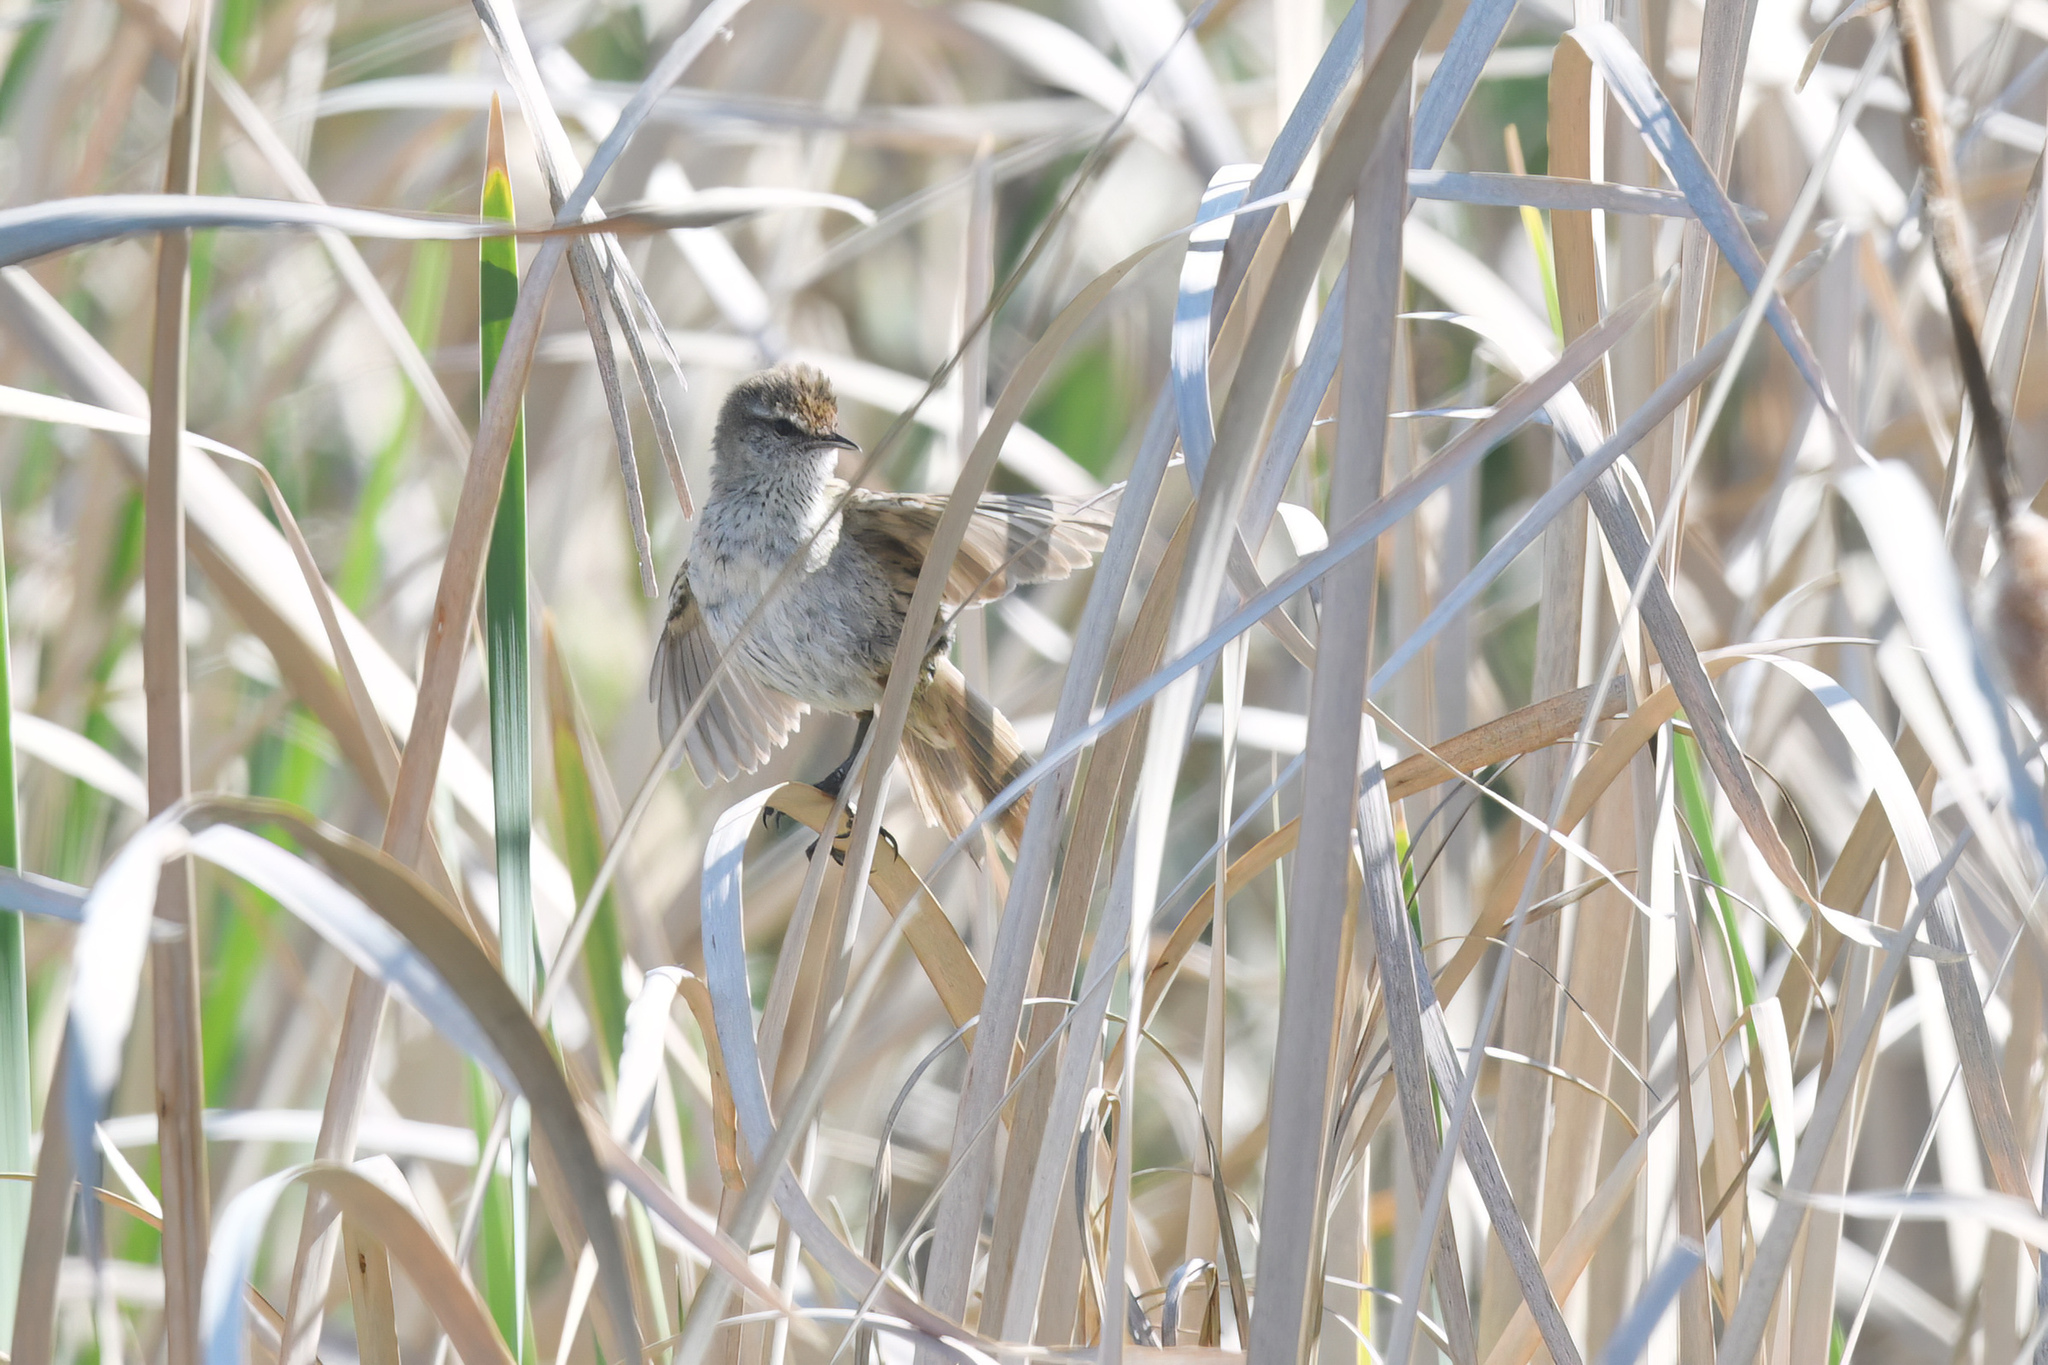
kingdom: Animalia
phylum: Chordata
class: Aves
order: Passeriformes
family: Locustellidae
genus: Megalurus
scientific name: Megalurus gramineus
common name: Little grassbird
